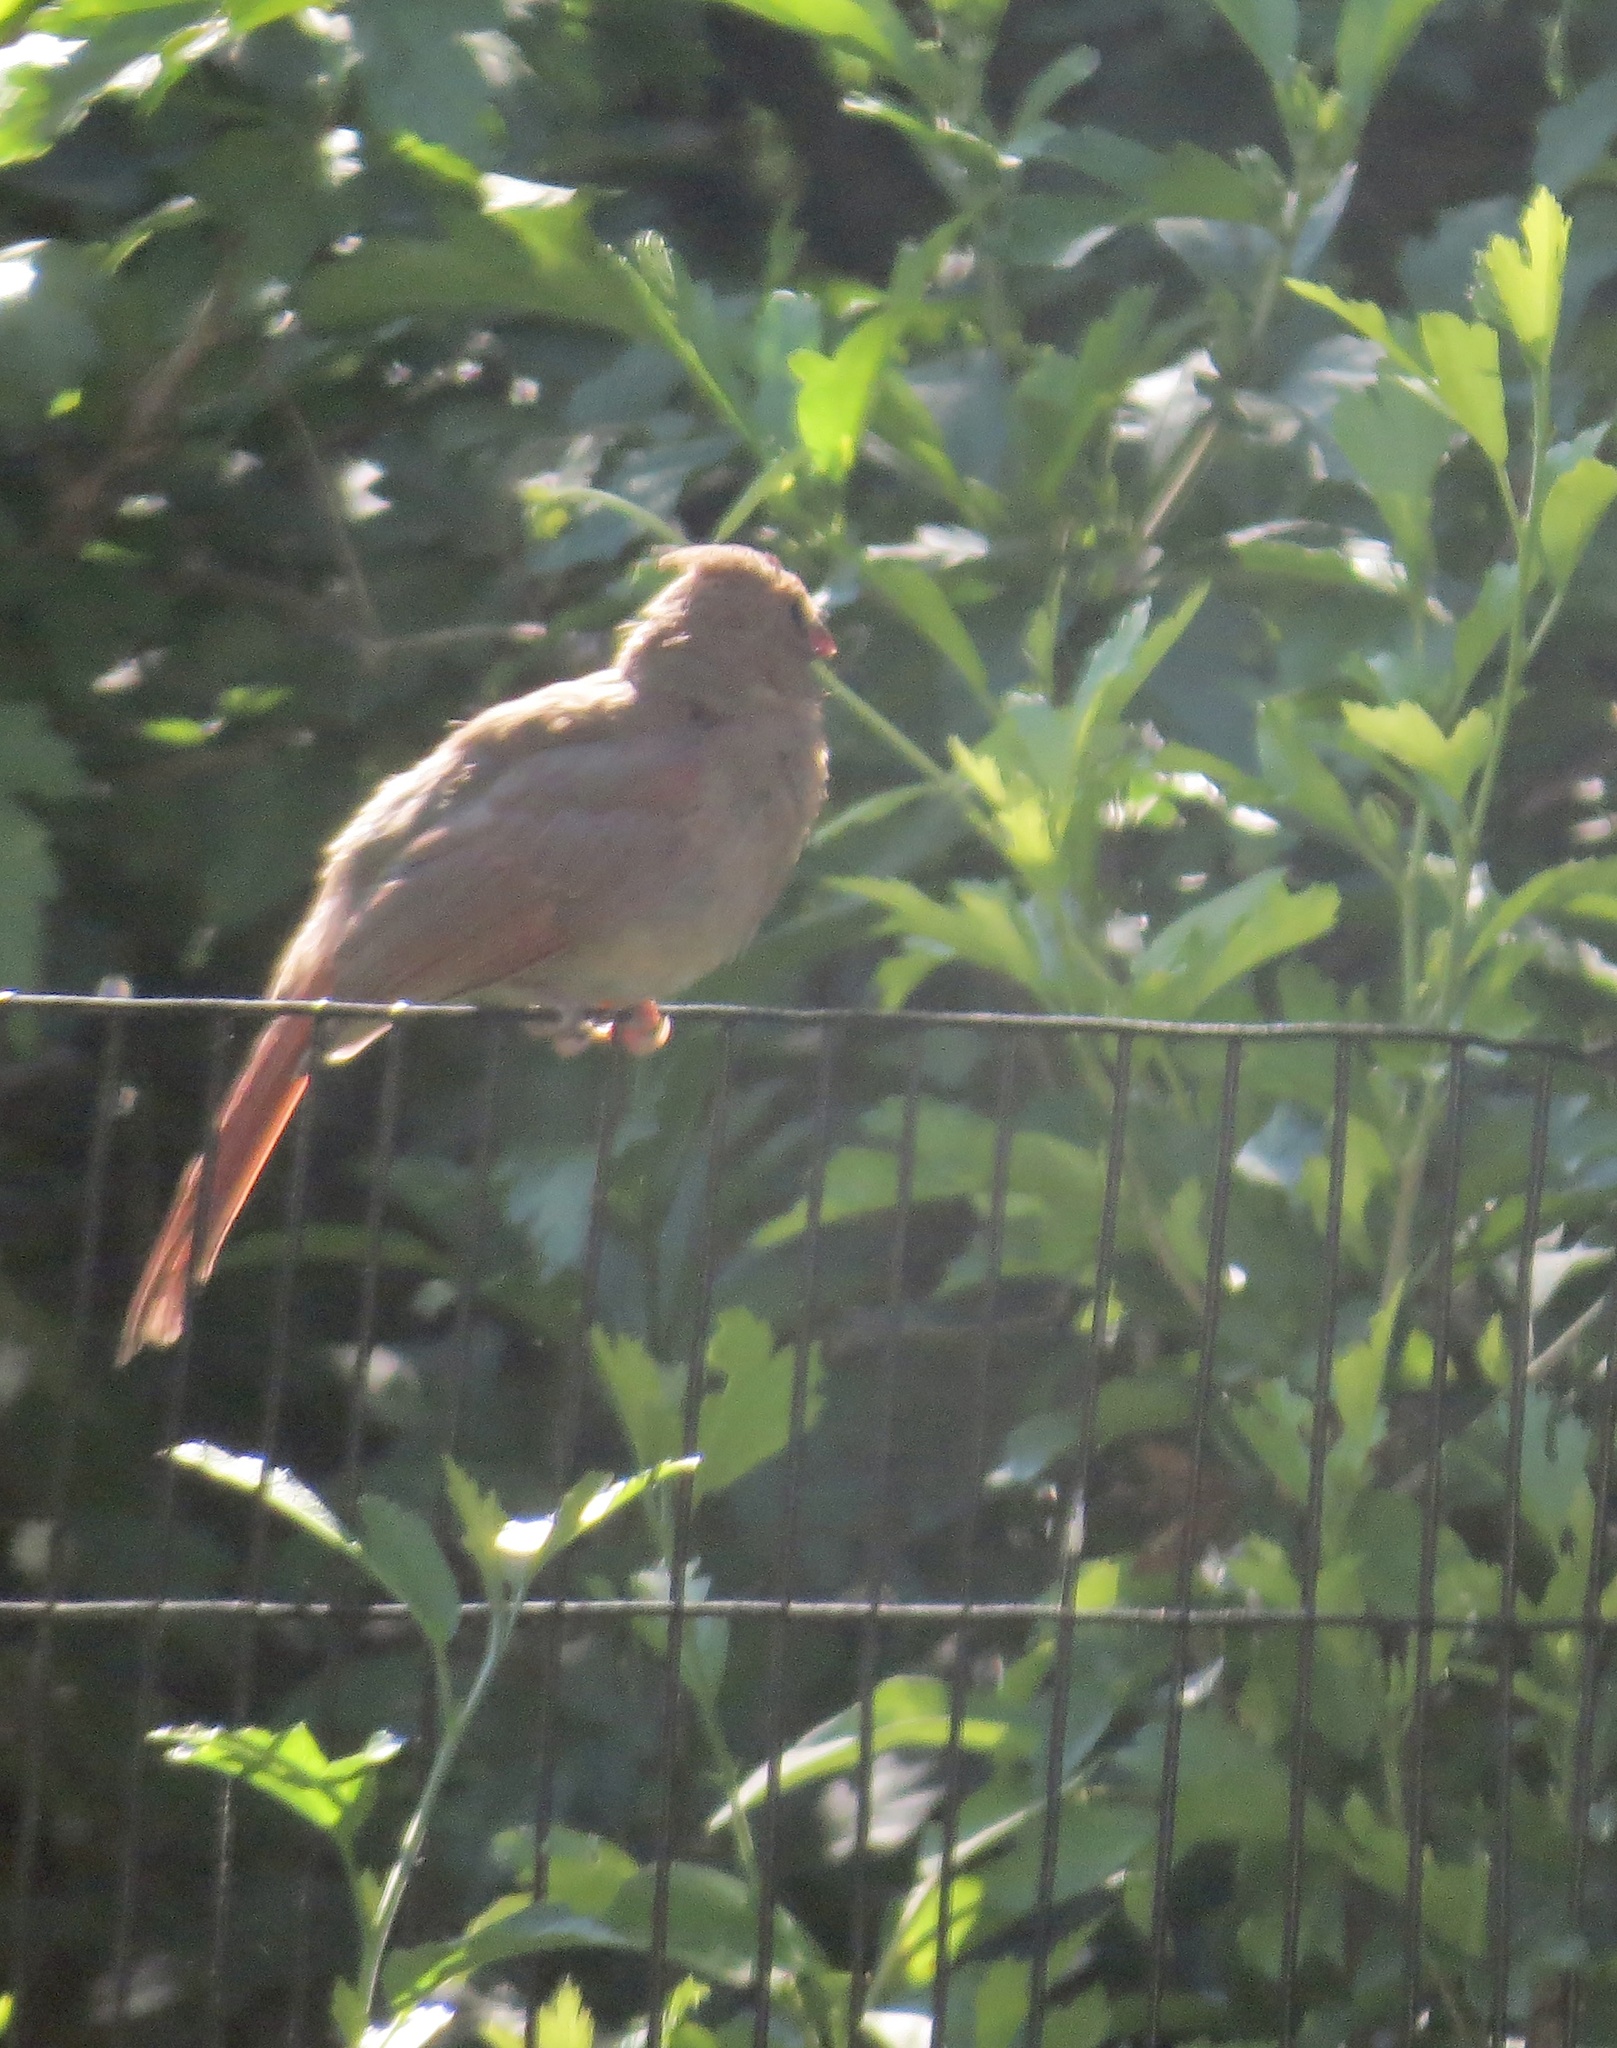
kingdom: Animalia
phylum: Chordata
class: Aves
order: Passeriformes
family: Cardinalidae
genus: Cardinalis
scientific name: Cardinalis cardinalis
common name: Northern cardinal
